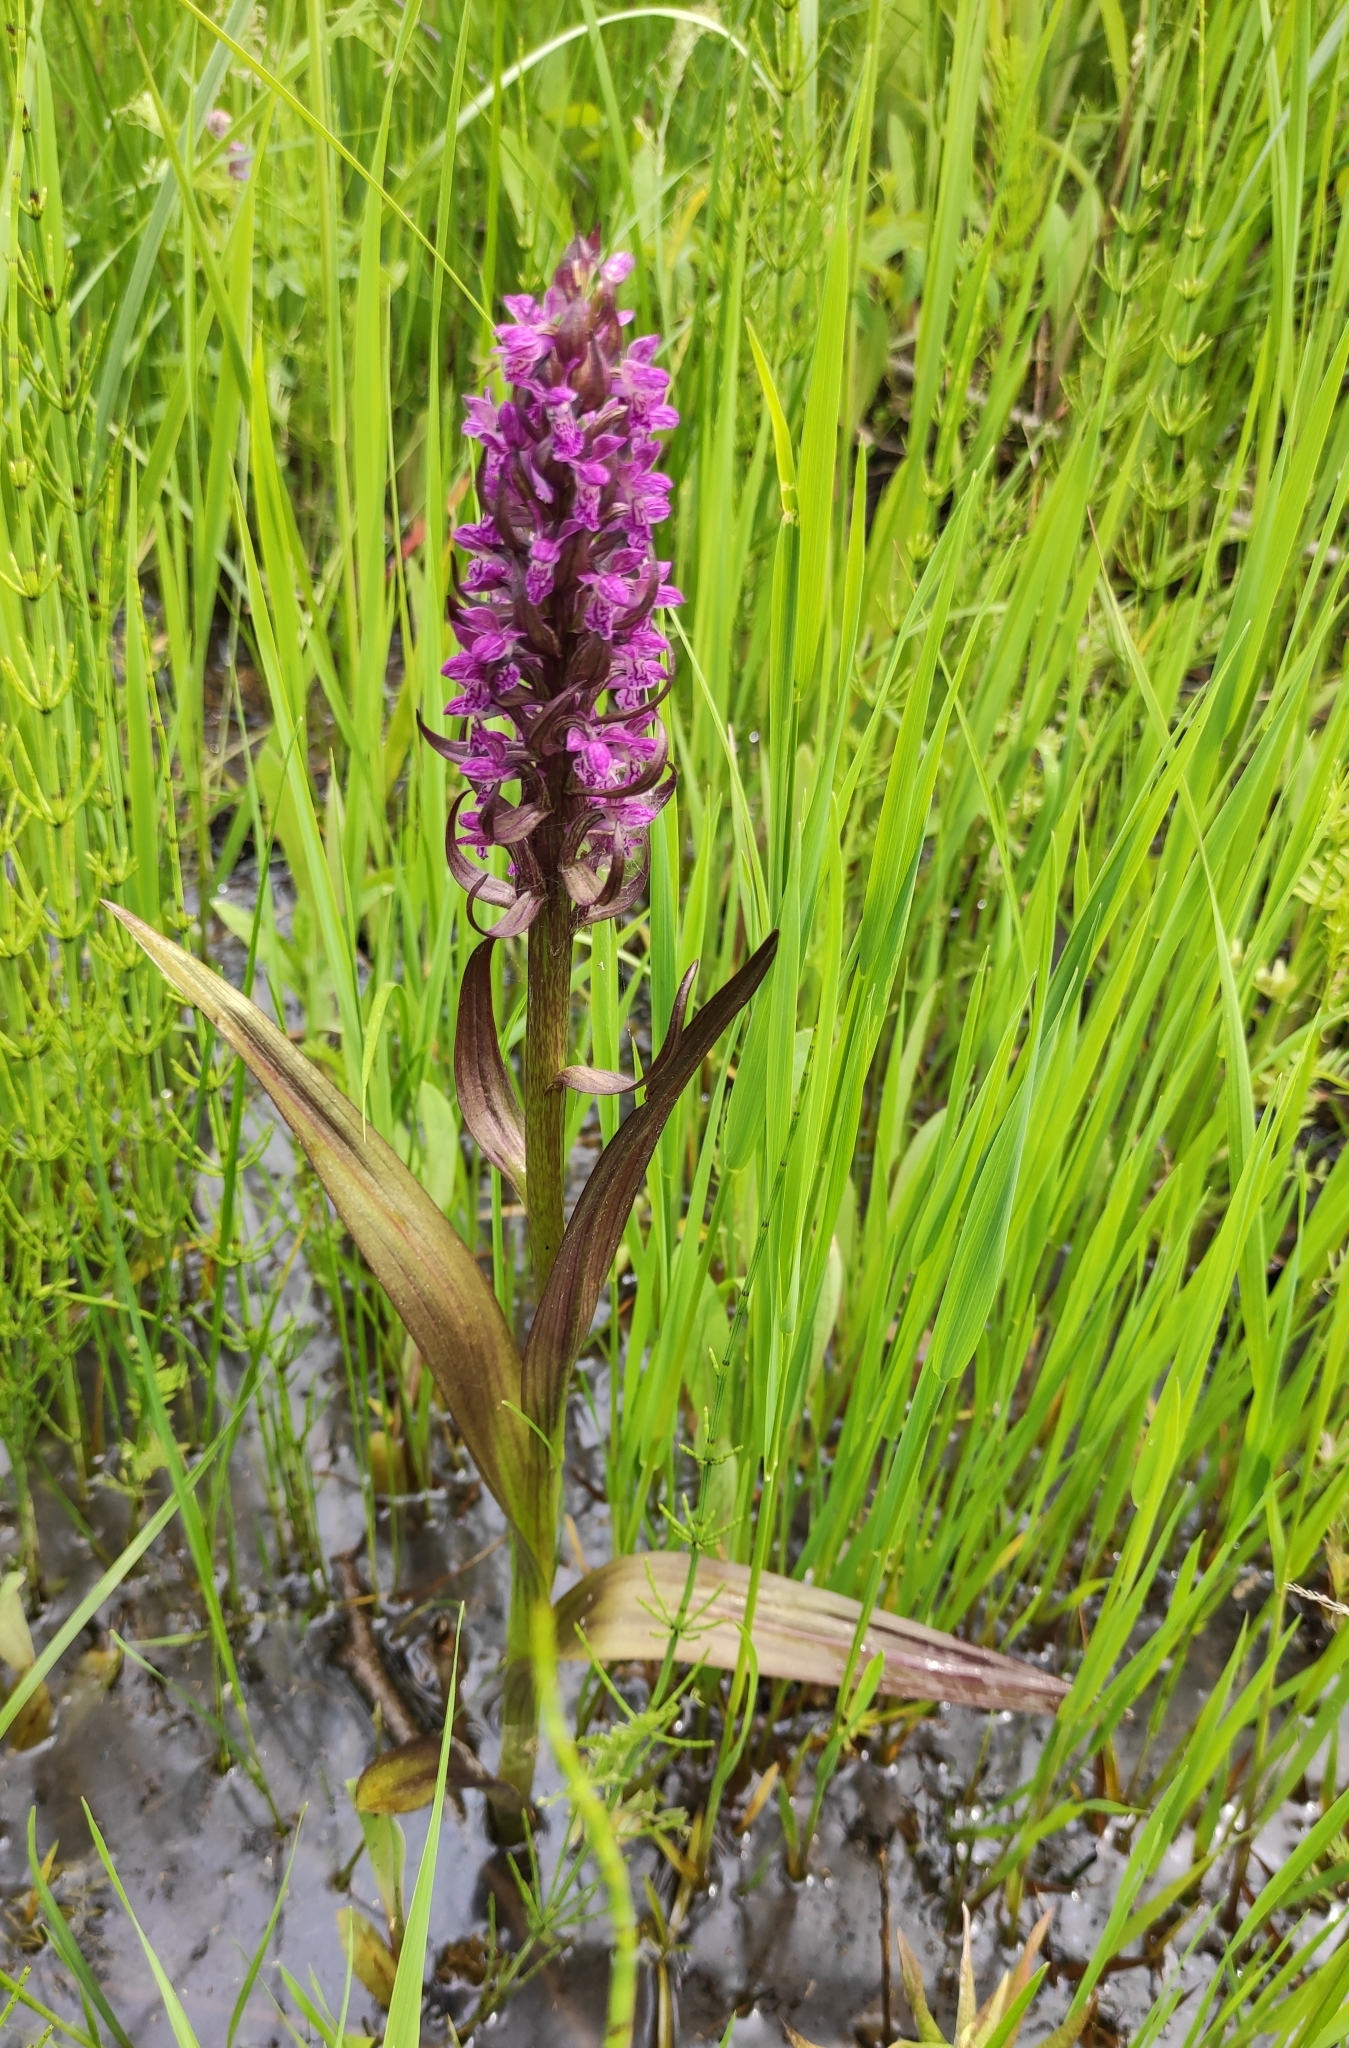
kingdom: Plantae
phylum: Tracheophyta
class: Liliopsida
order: Asparagales
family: Orchidaceae
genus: Dactylorhiza
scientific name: Dactylorhiza incarnata
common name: Early marsh-orchid
